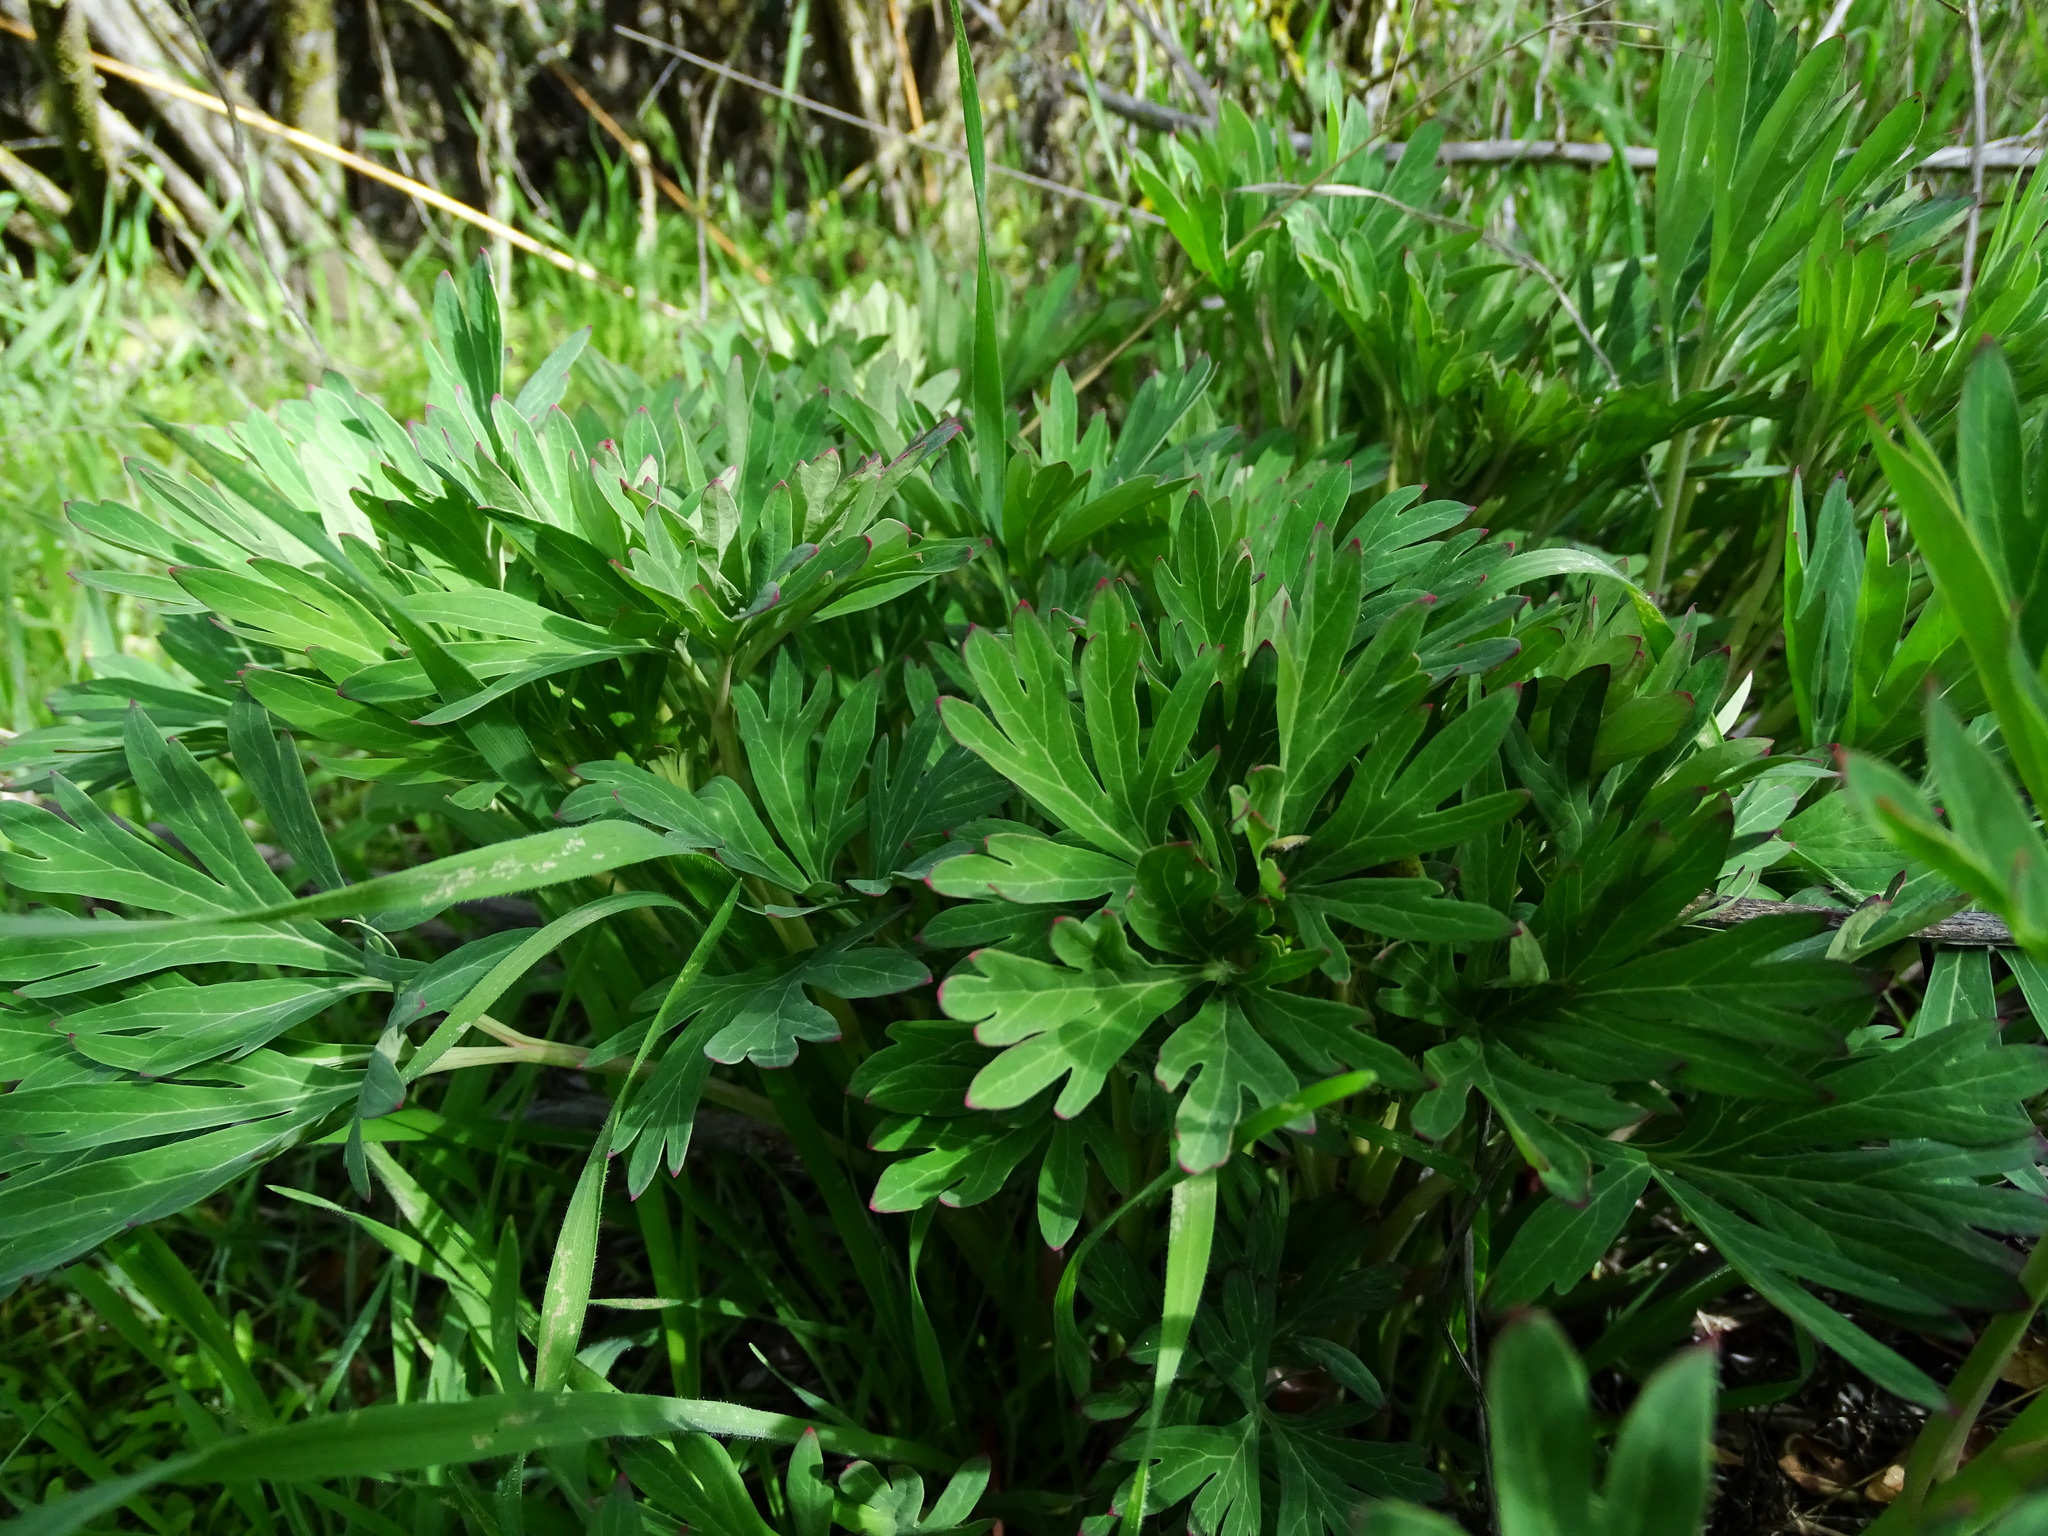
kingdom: Plantae
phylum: Tracheophyta
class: Magnoliopsida
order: Saxifragales
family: Paeoniaceae
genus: Paeonia
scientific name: Paeonia californica
